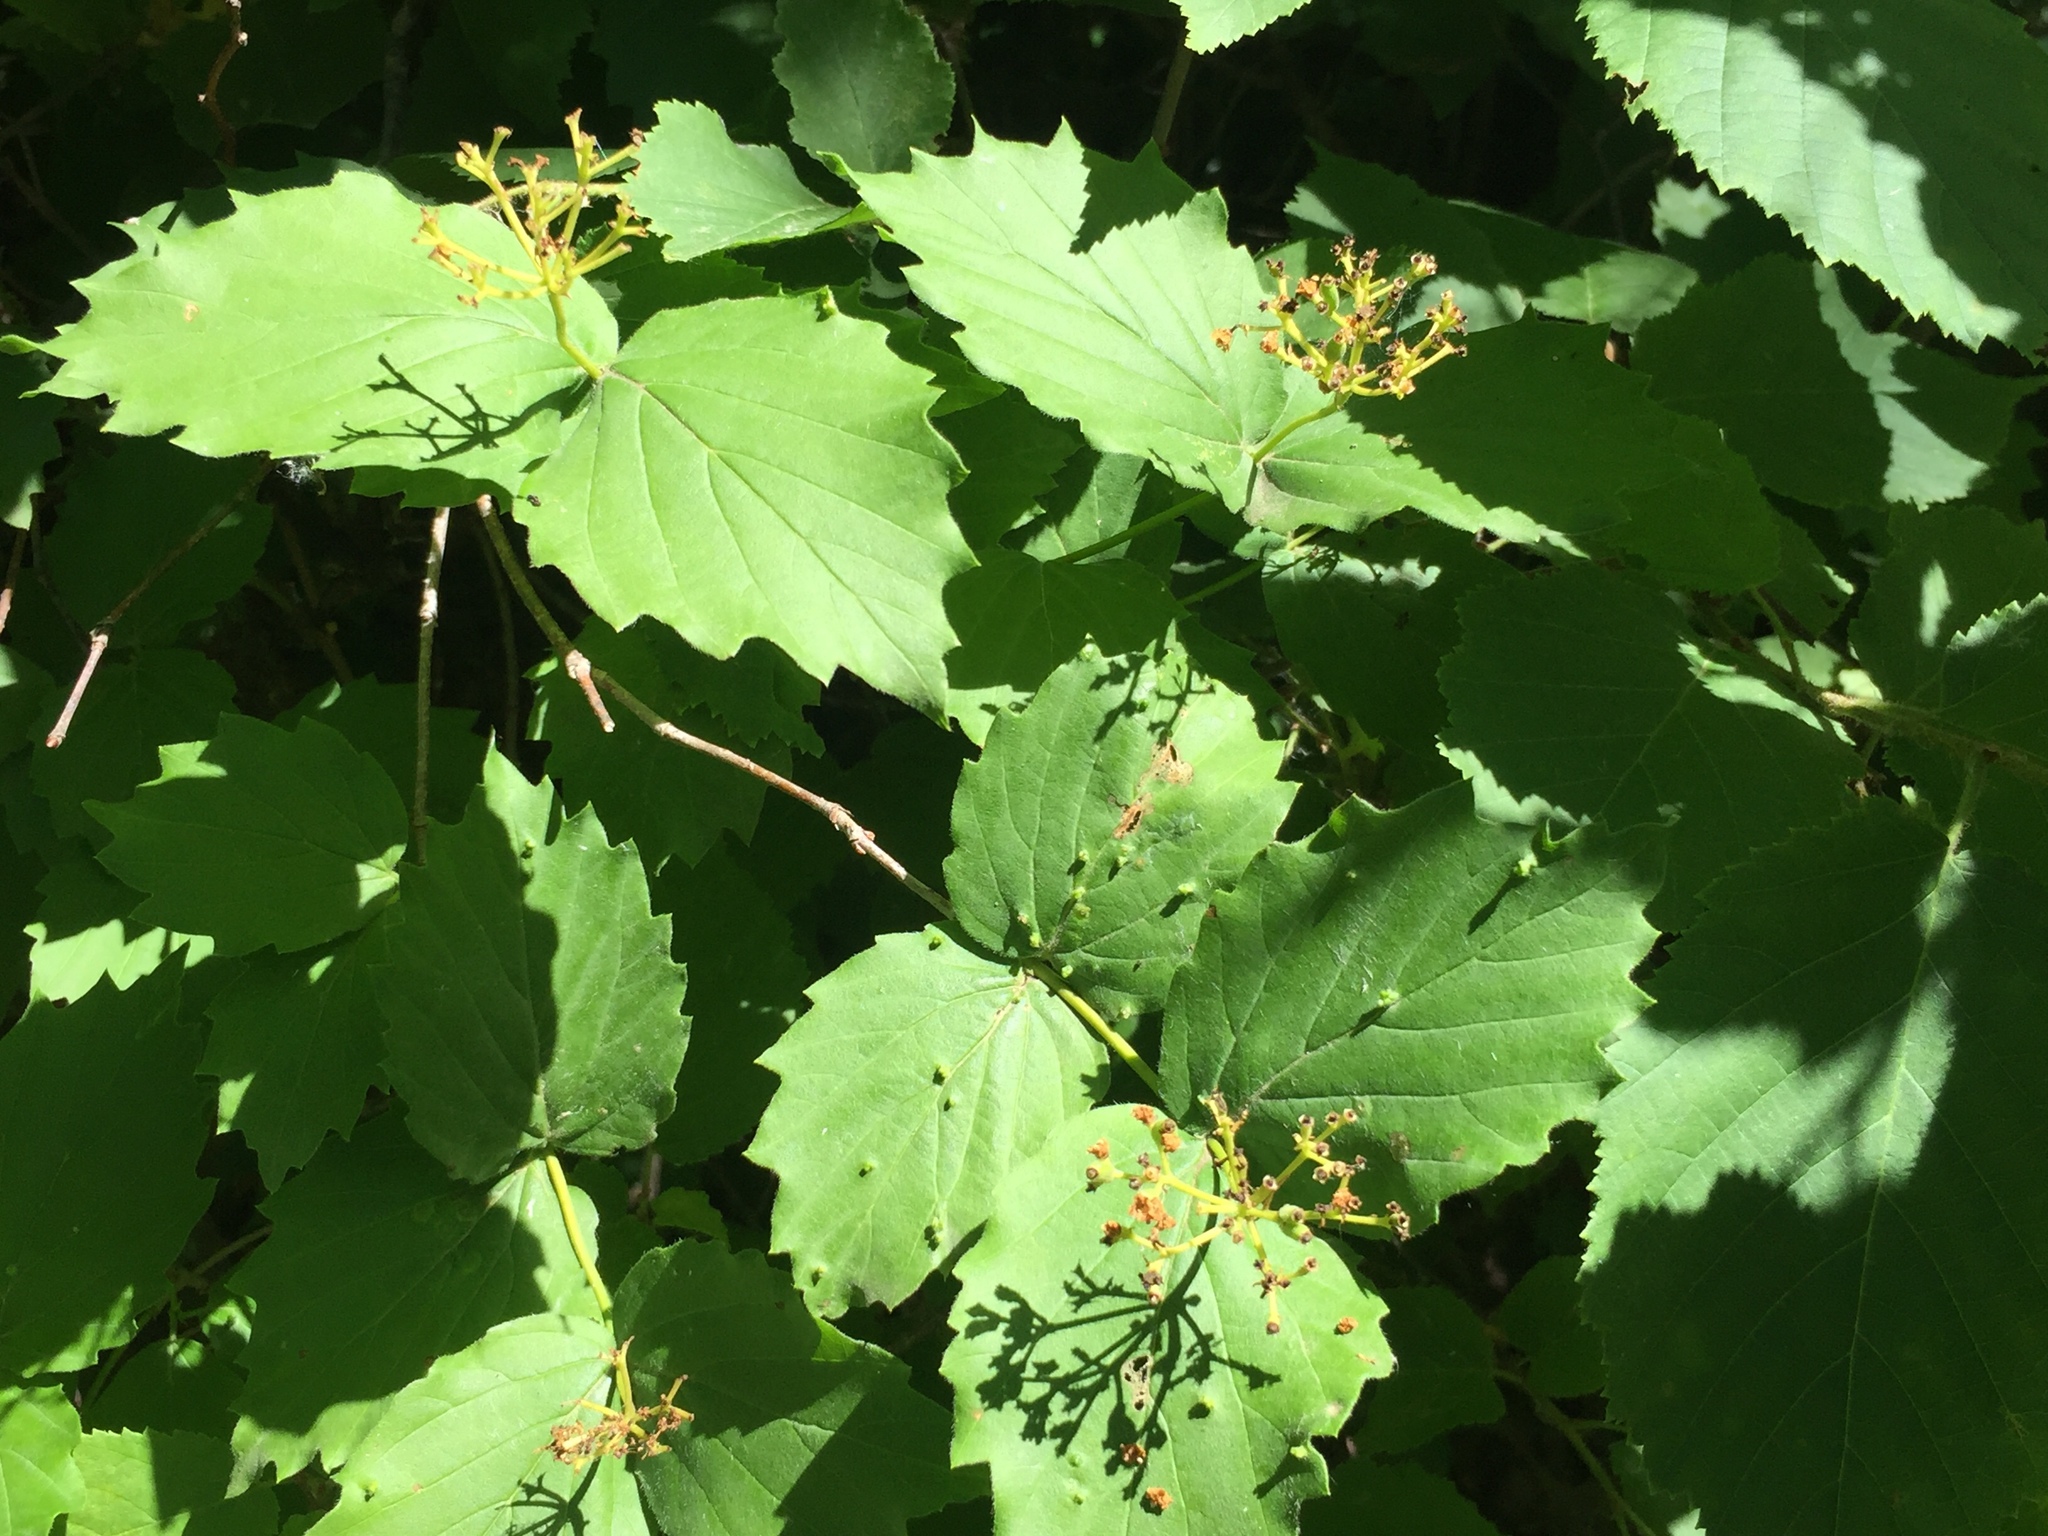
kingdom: Plantae
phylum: Tracheophyta
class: Magnoliopsida
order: Dipsacales
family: Viburnaceae
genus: Viburnum
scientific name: Viburnum rafinesqueanum
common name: Downy arrow-wood
